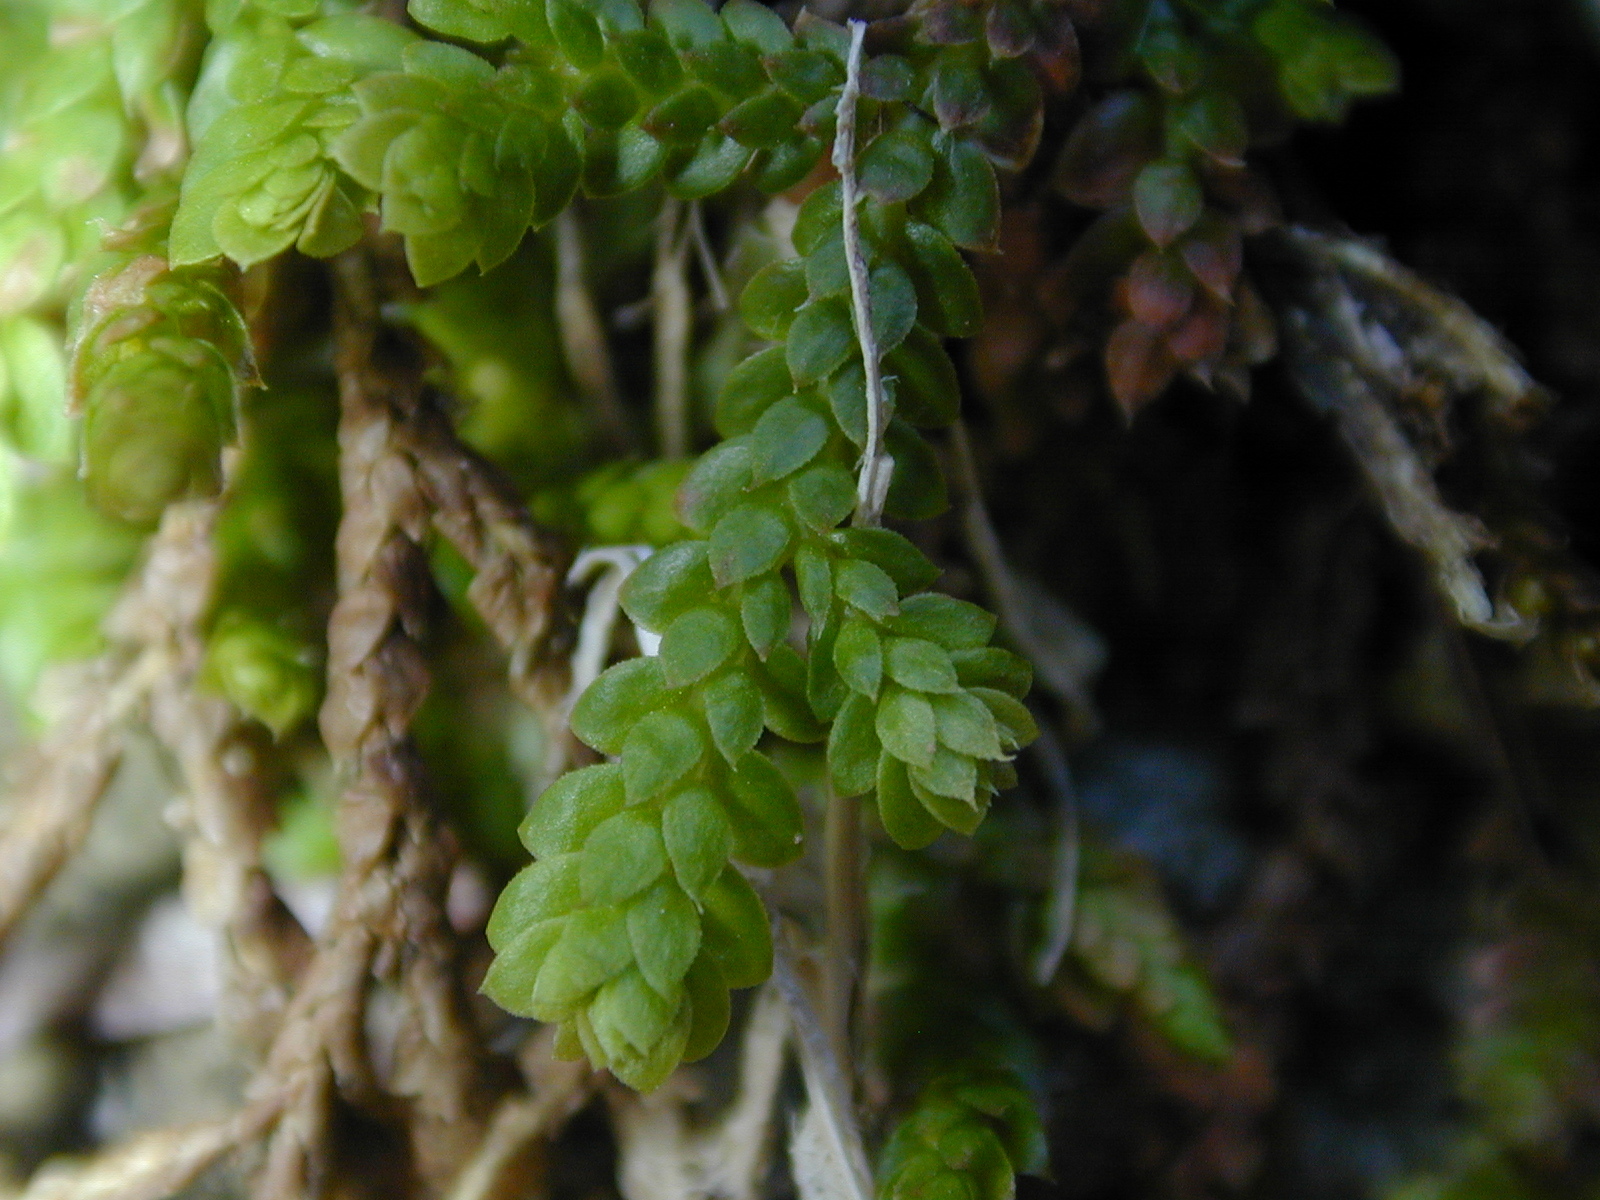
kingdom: Plantae
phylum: Tracheophyta
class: Lycopodiopsida
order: Selaginellales
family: Selaginellaceae
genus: Selaginella
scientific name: Selaginella denticulata
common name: Toothed-leaved clubmoss
